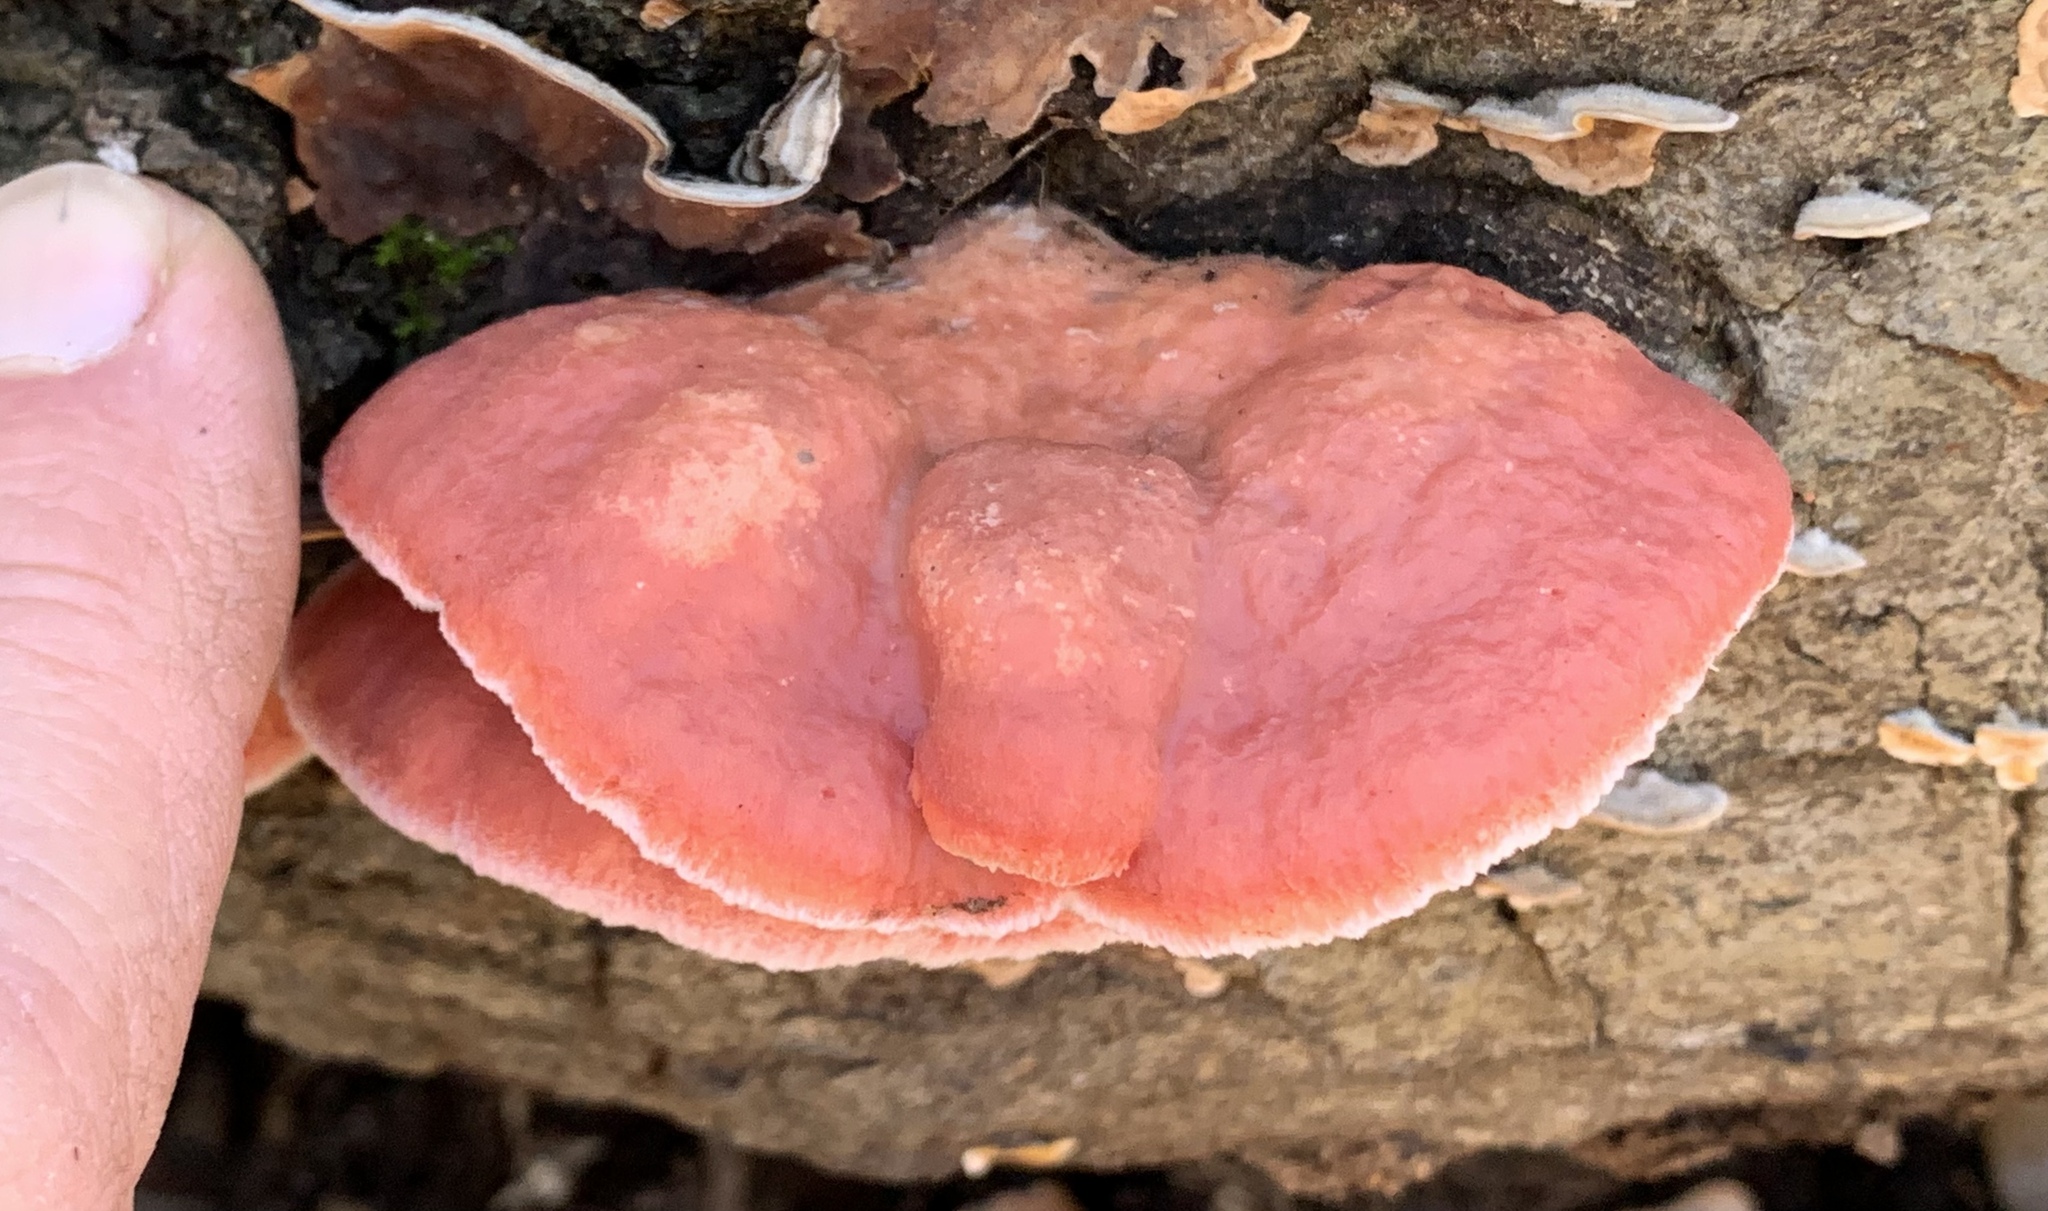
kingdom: Fungi
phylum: Basidiomycota
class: Agaricomycetes
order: Polyporales
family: Irpicaceae
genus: Byssomerulius
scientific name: Byssomerulius incarnatus
